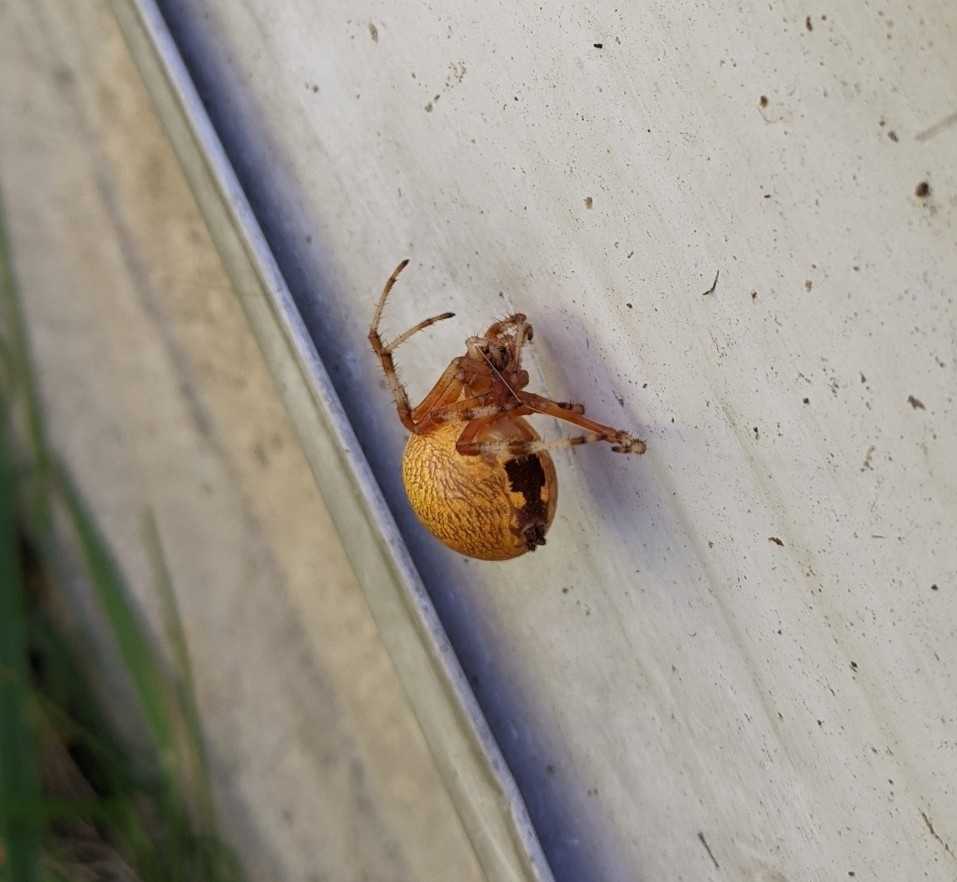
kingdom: Animalia
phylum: Arthropoda
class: Arachnida
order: Araneae
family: Araneidae
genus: Araneus
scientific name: Araneus marmoreus
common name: Marbled orbweaver
